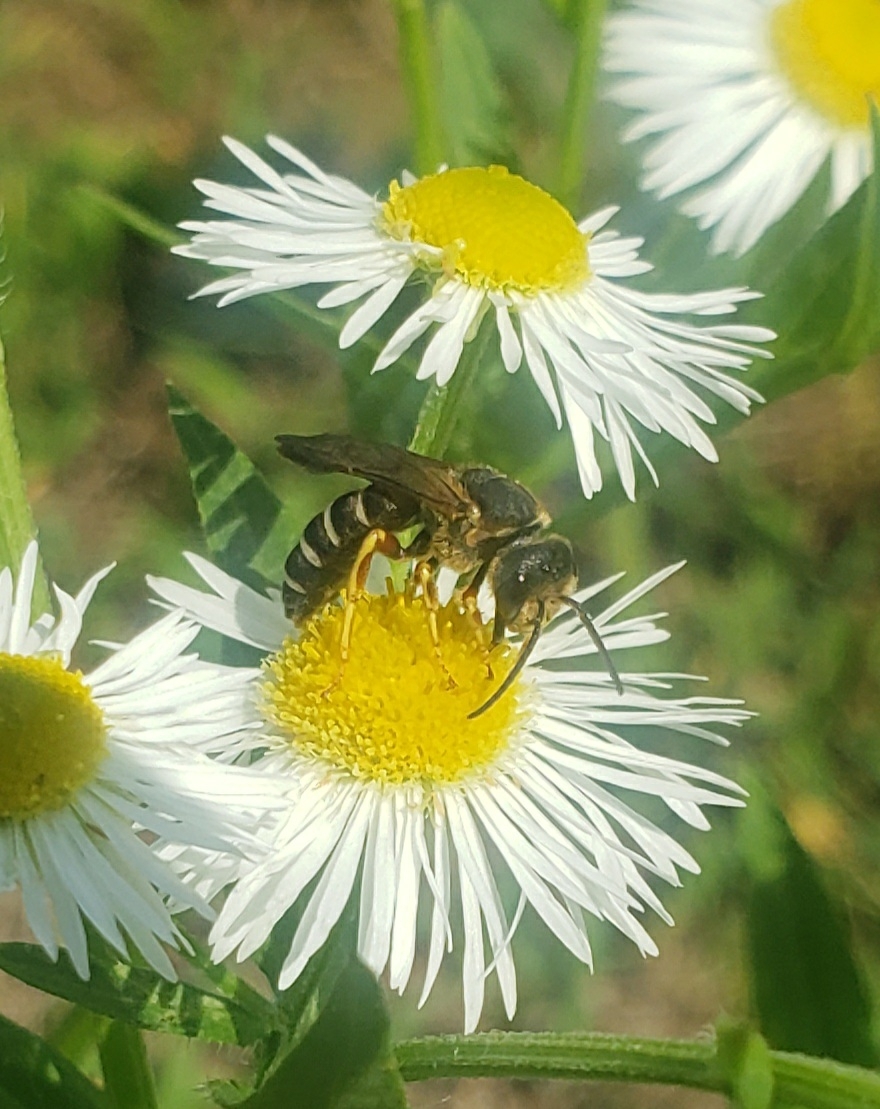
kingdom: Animalia
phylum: Arthropoda
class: Insecta
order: Hymenoptera
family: Halictidae
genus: Halictus
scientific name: Halictus parallelus
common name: Parallel-striped sweat bee
